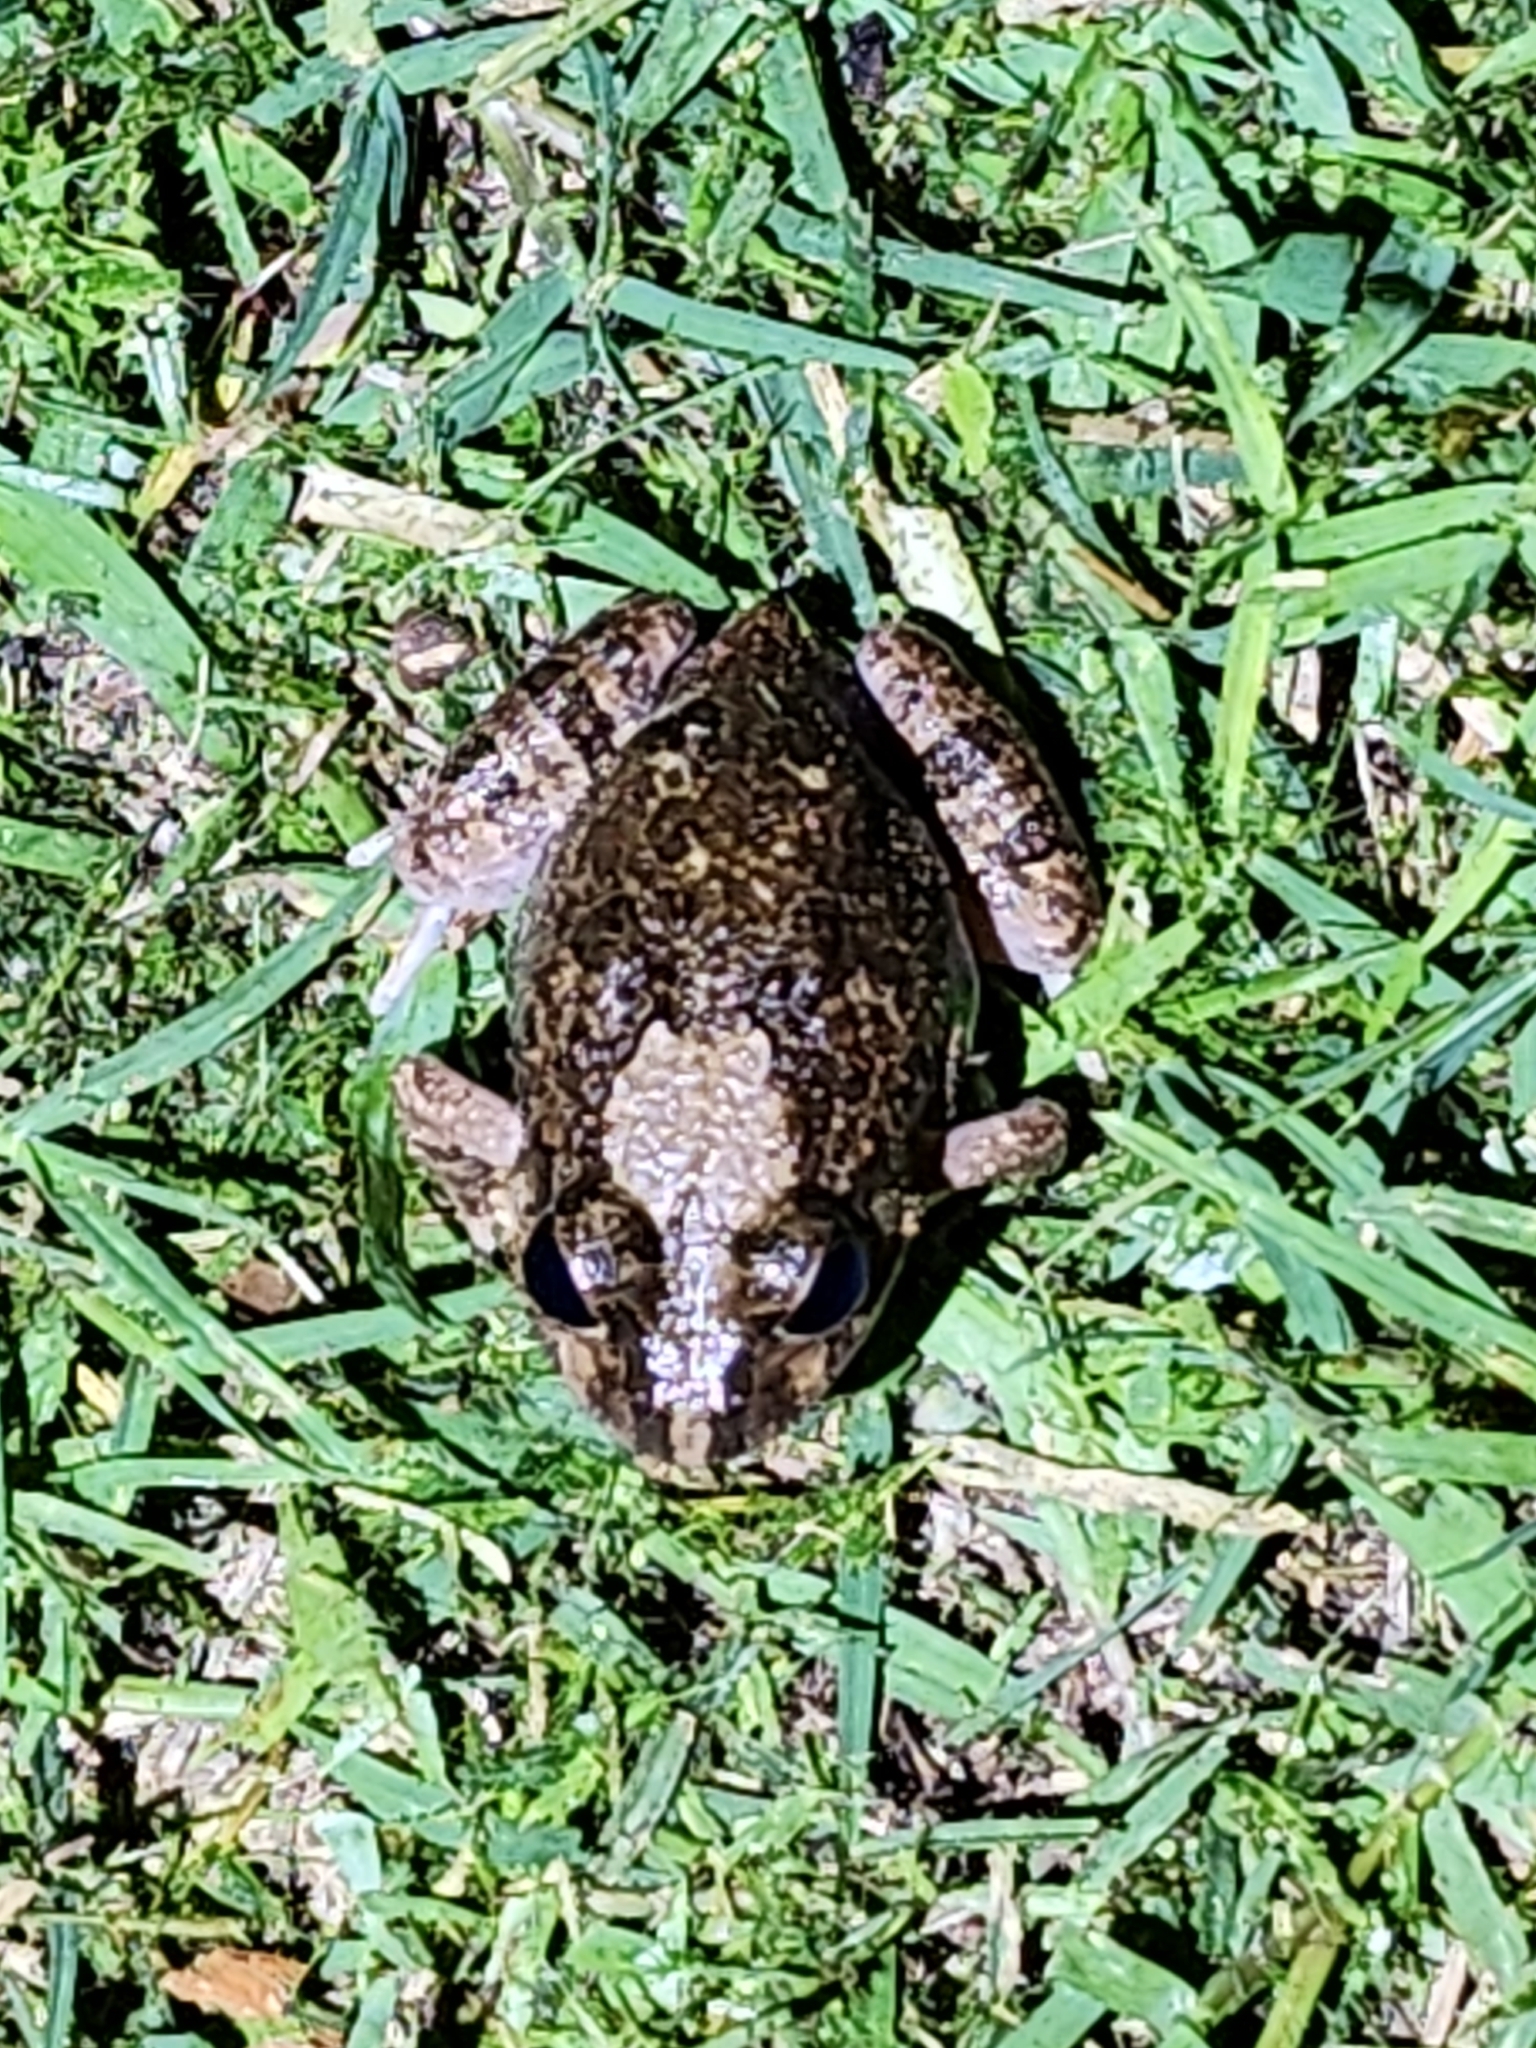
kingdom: Animalia
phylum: Chordata
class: Amphibia
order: Anura
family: Limnodynastidae
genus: Platyplectrum
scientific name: Platyplectrum ornatum
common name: Ornate burrowing frog
